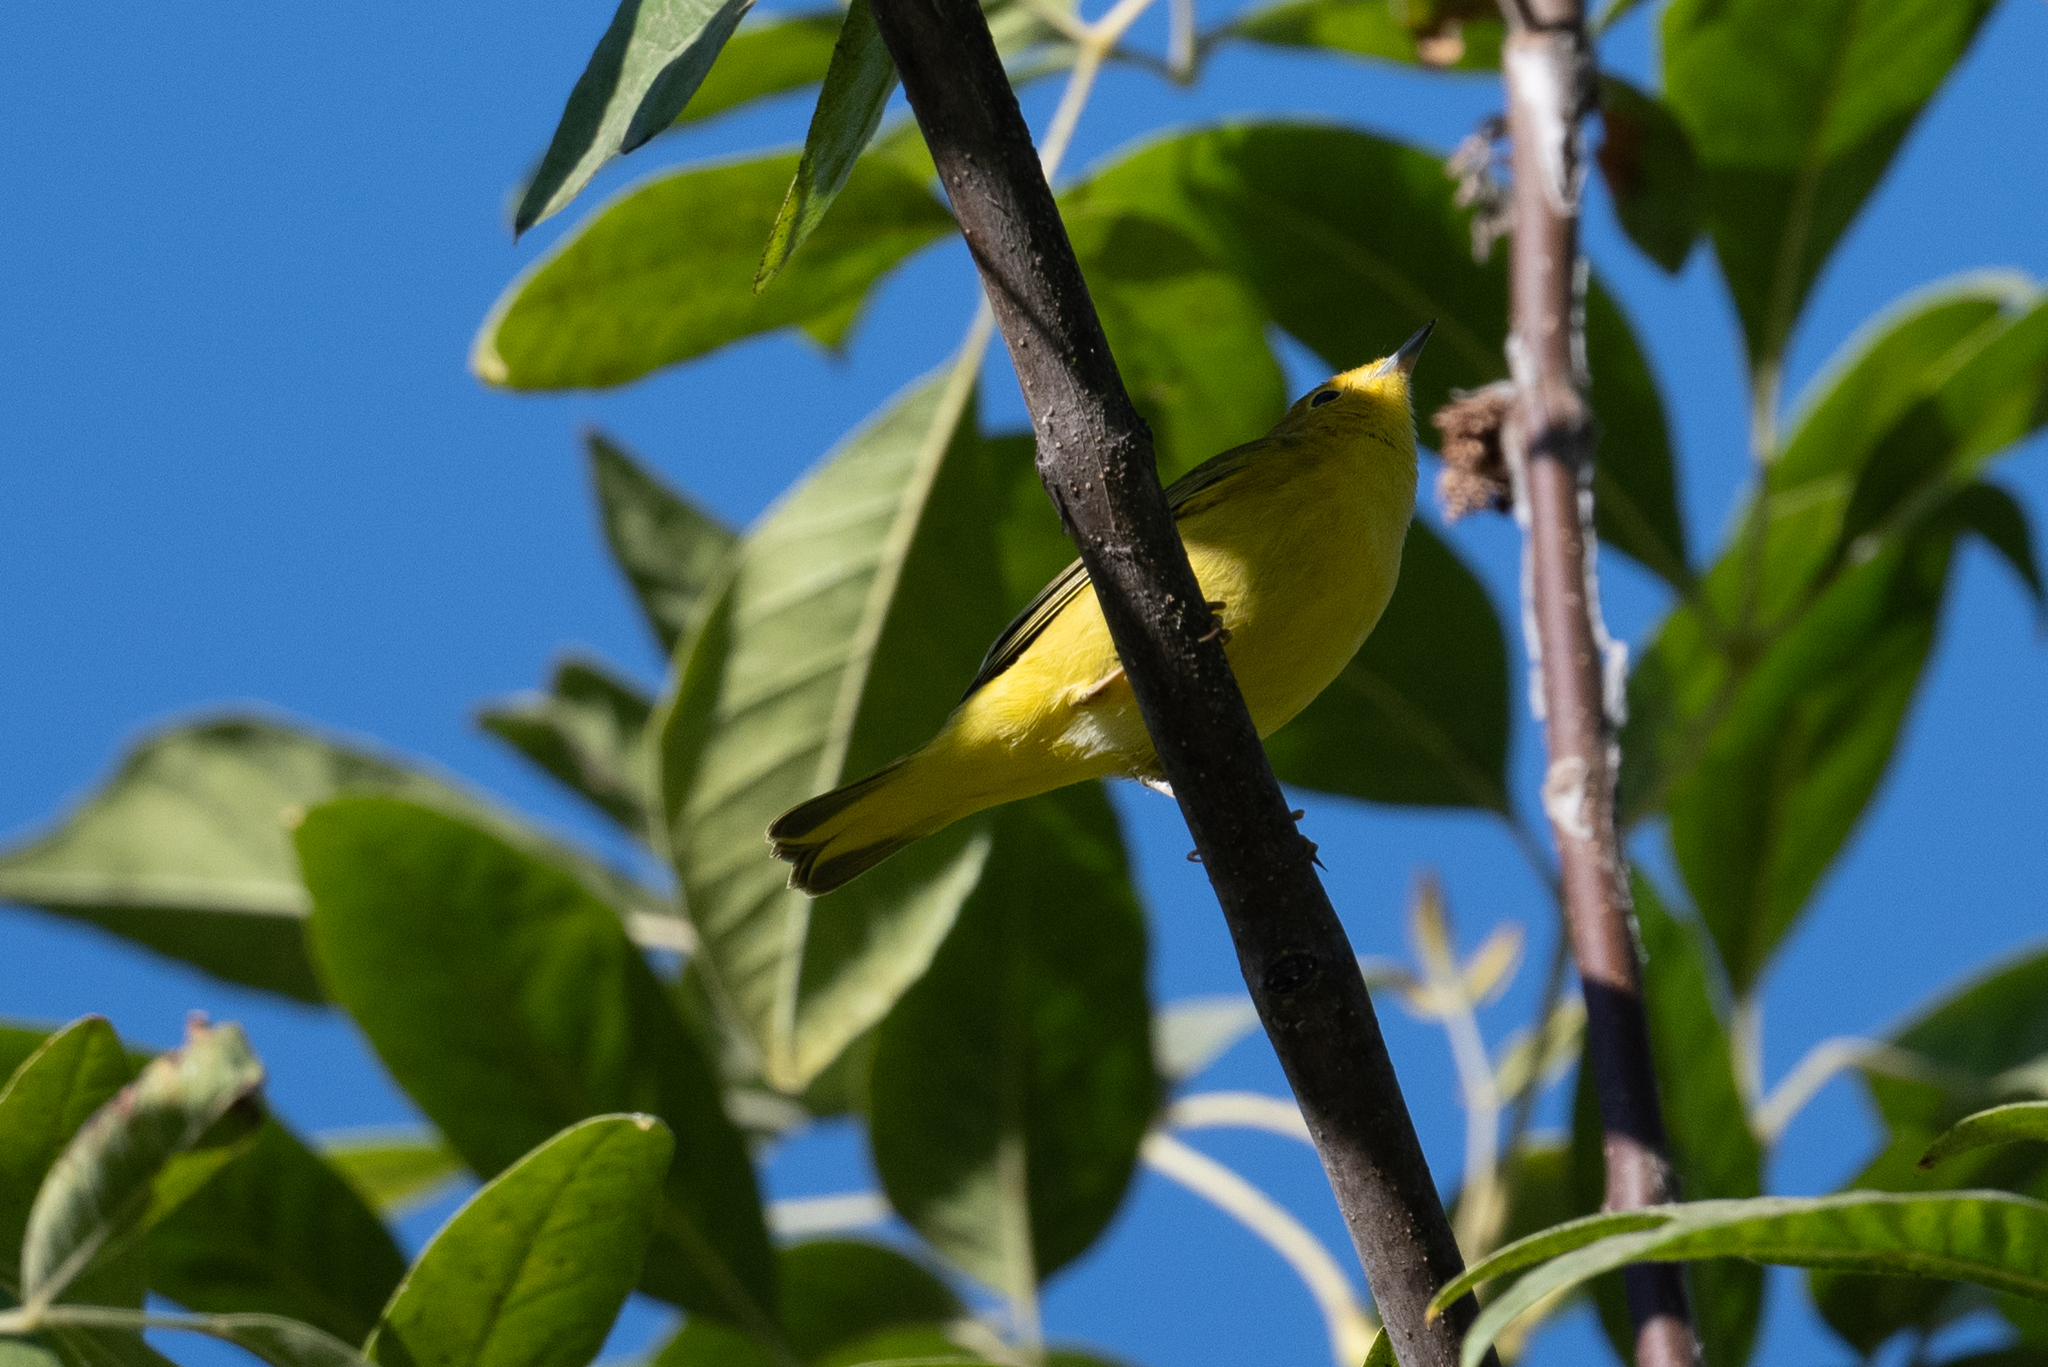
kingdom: Animalia
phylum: Chordata
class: Aves
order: Passeriformes
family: Parulidae
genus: Setophaga
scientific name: Setophaga petechia
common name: Yellow warbler
